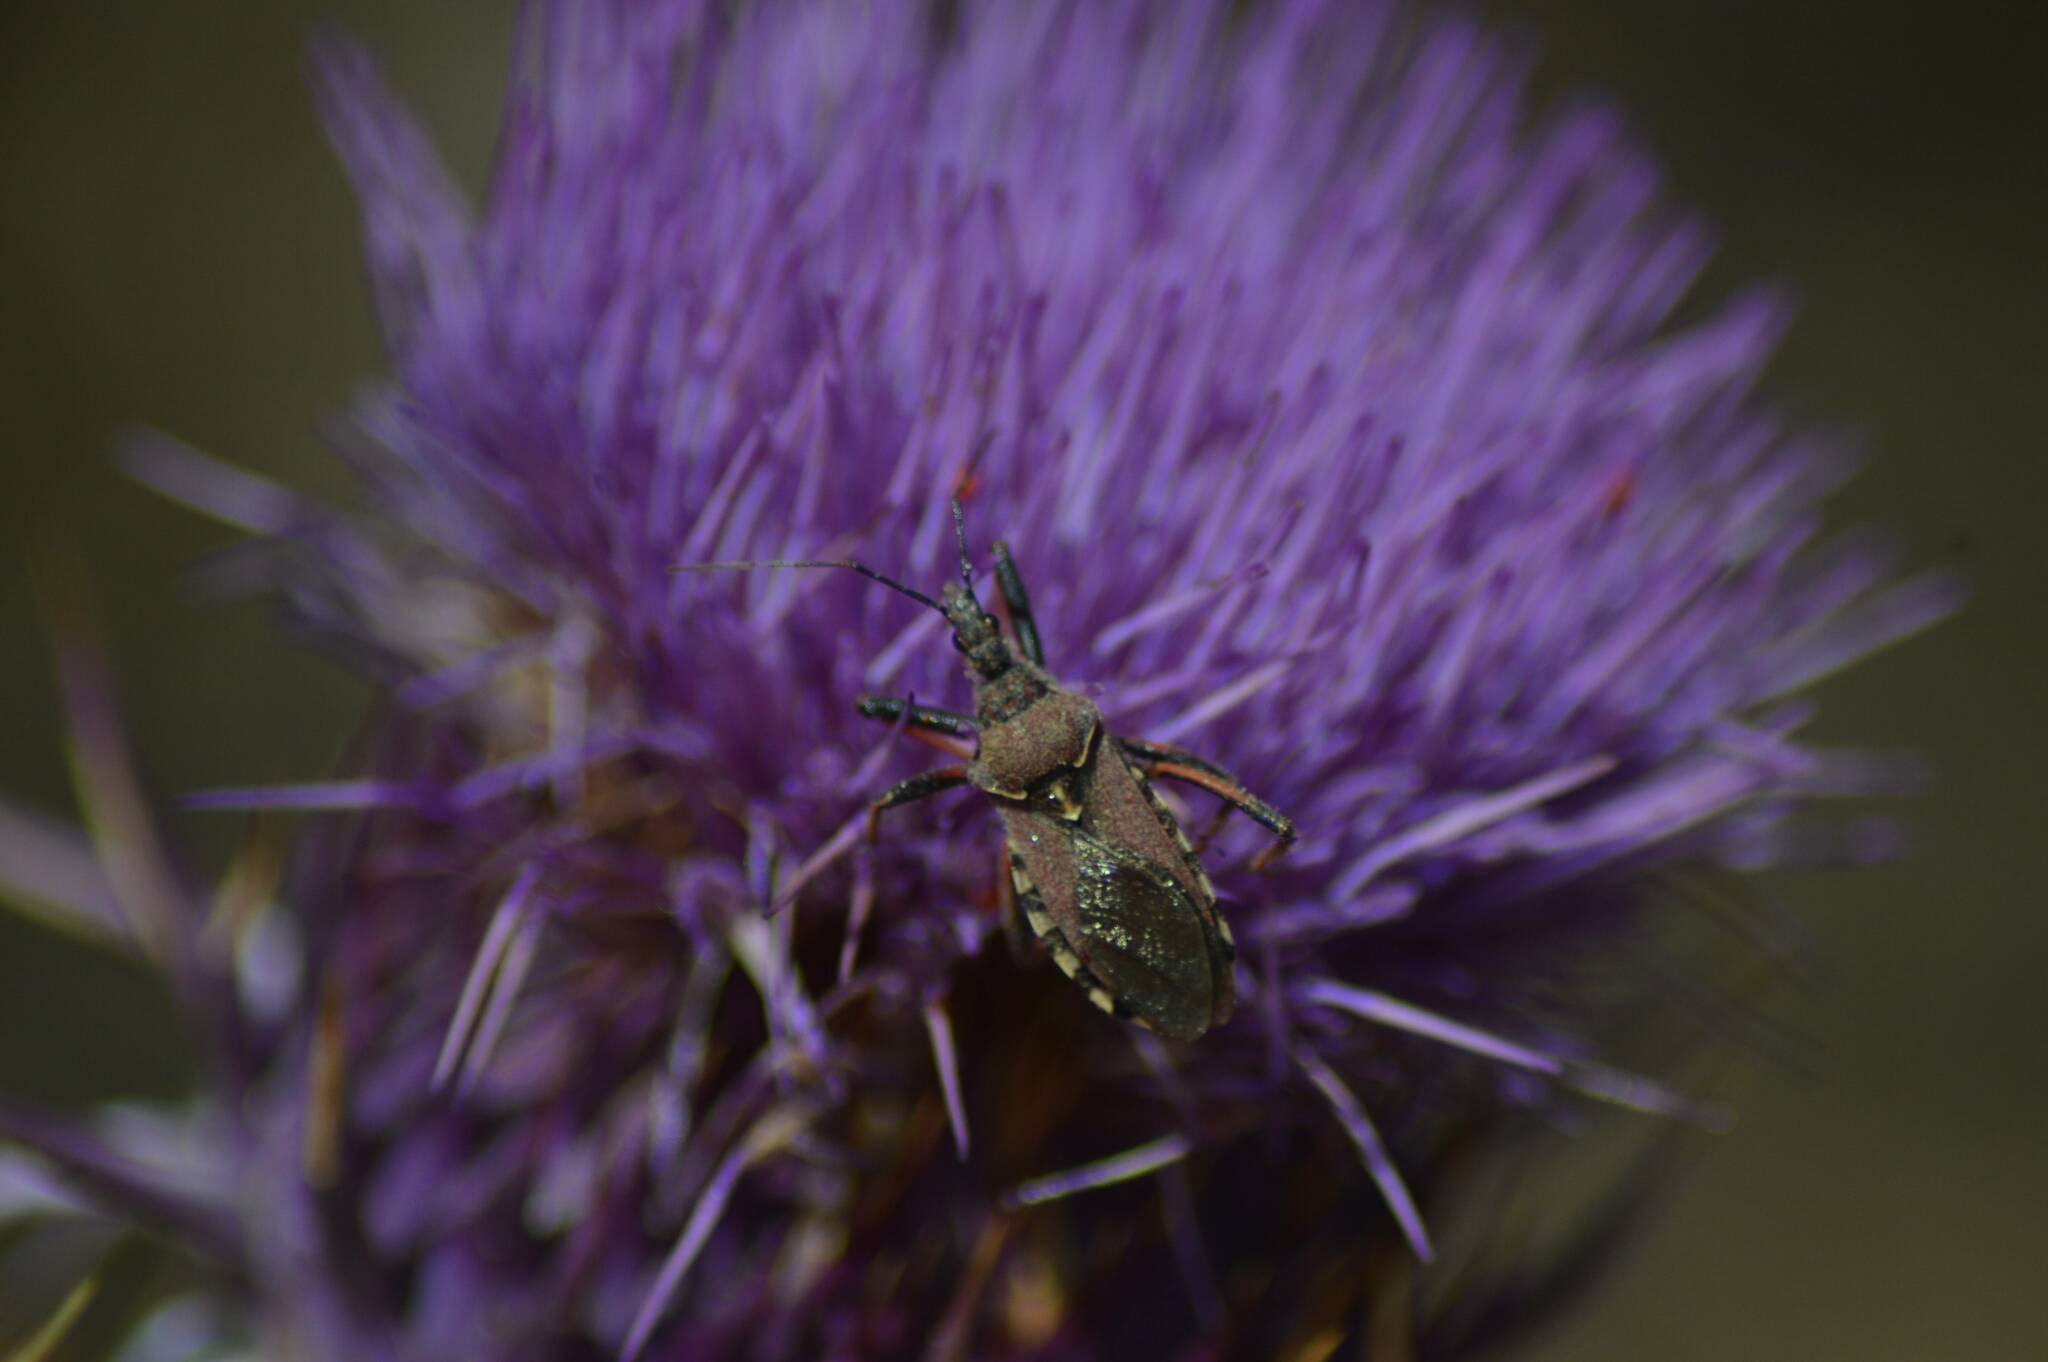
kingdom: Animalia
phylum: Arthropoda
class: Insecta
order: Hemiptera
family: Reduviidae
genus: Rhynocoris
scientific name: Rhynocoris erythropus
